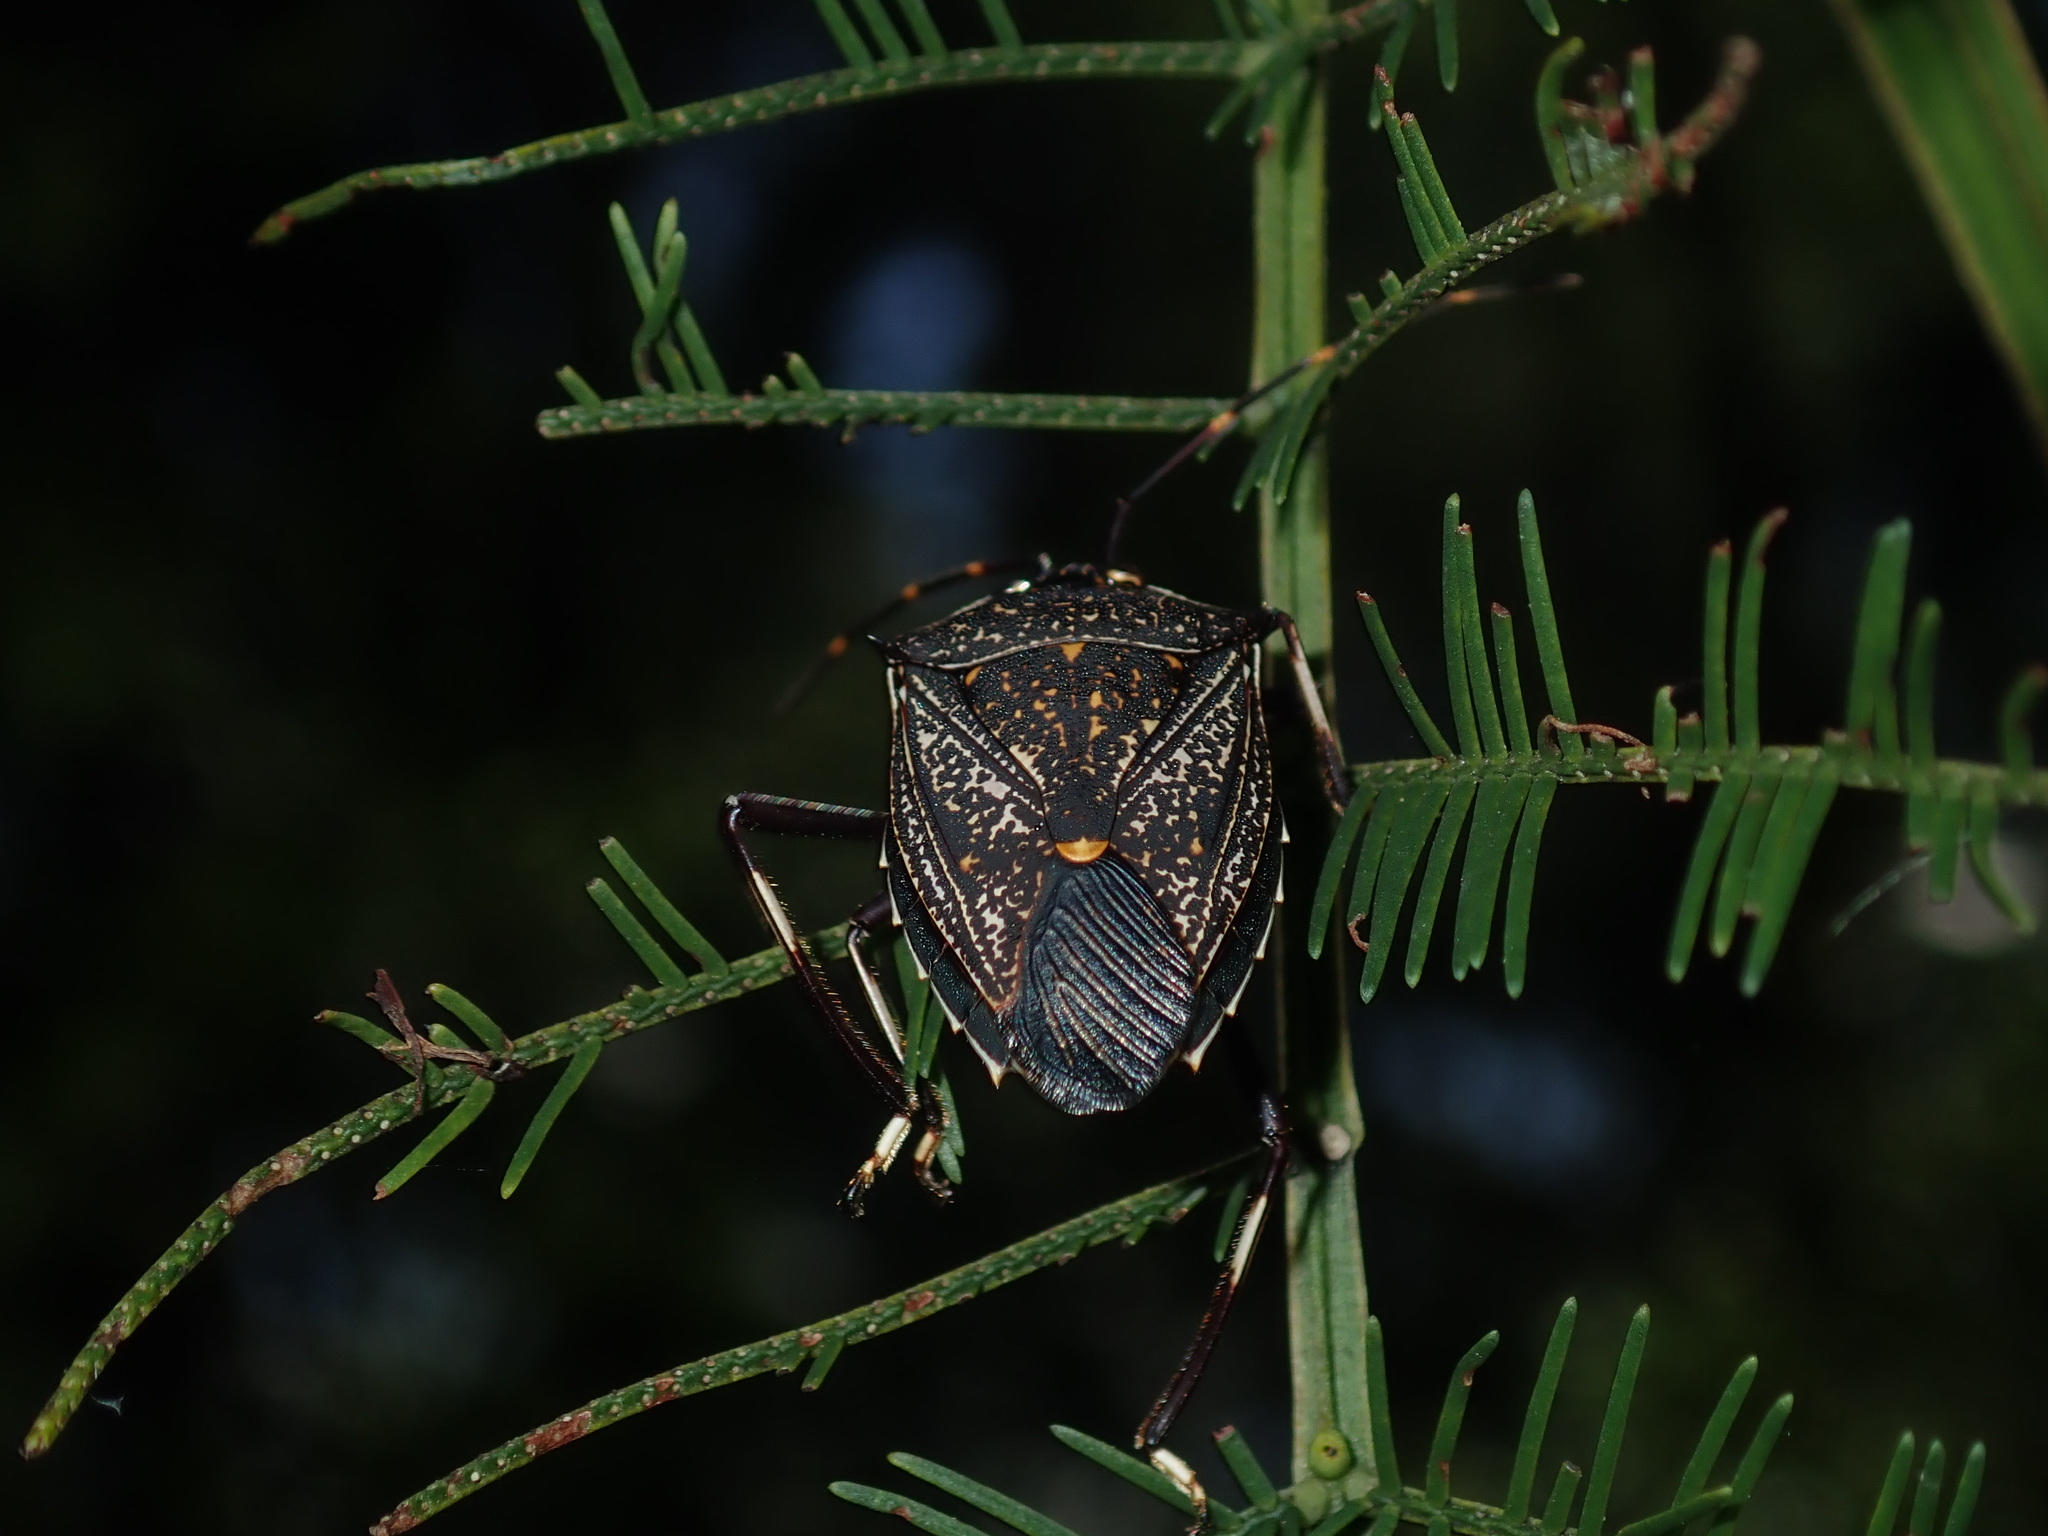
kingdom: Animalia
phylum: Arthropoda
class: Insecta
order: Hemiptera
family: Pentatomidae
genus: Poecilometis
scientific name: Poecilometis
